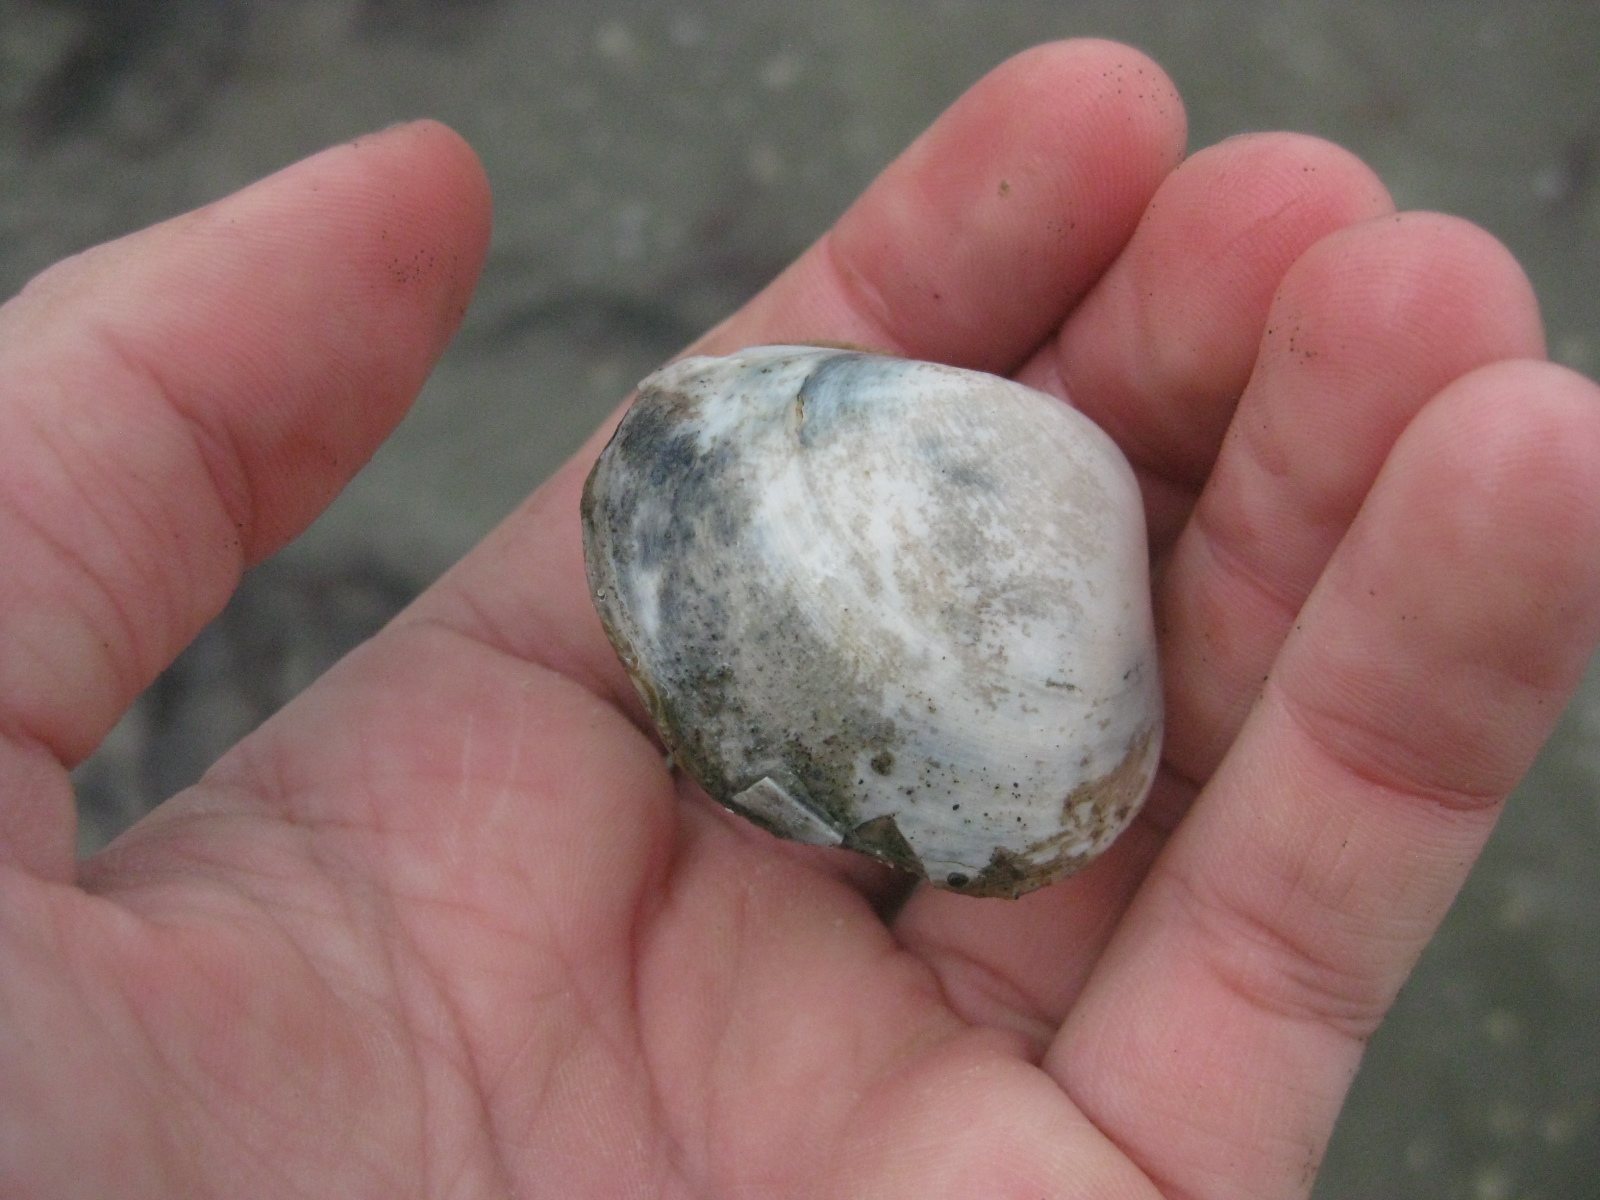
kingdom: Animalia
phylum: Mollusca
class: Bivalvia
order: Venerida
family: Mactridae
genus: Cyclomactra
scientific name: Cyclomactra ovata
